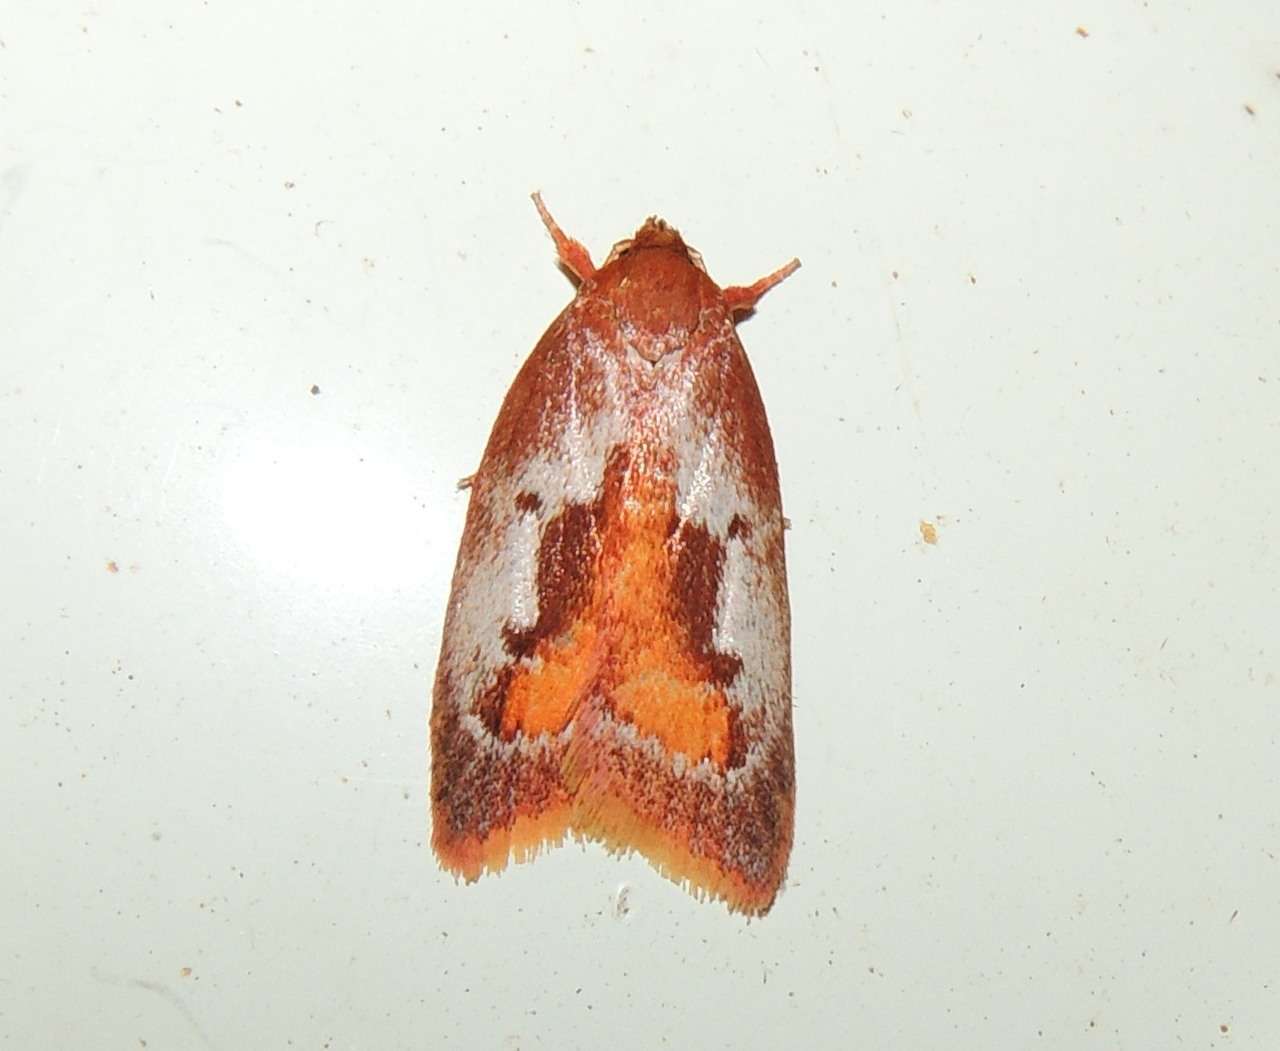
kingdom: Animalia
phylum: Arthropoda
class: Insecta
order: Lepidoptera
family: Oecophoridae
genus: Epicurica
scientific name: Epicurica laetiferanus
